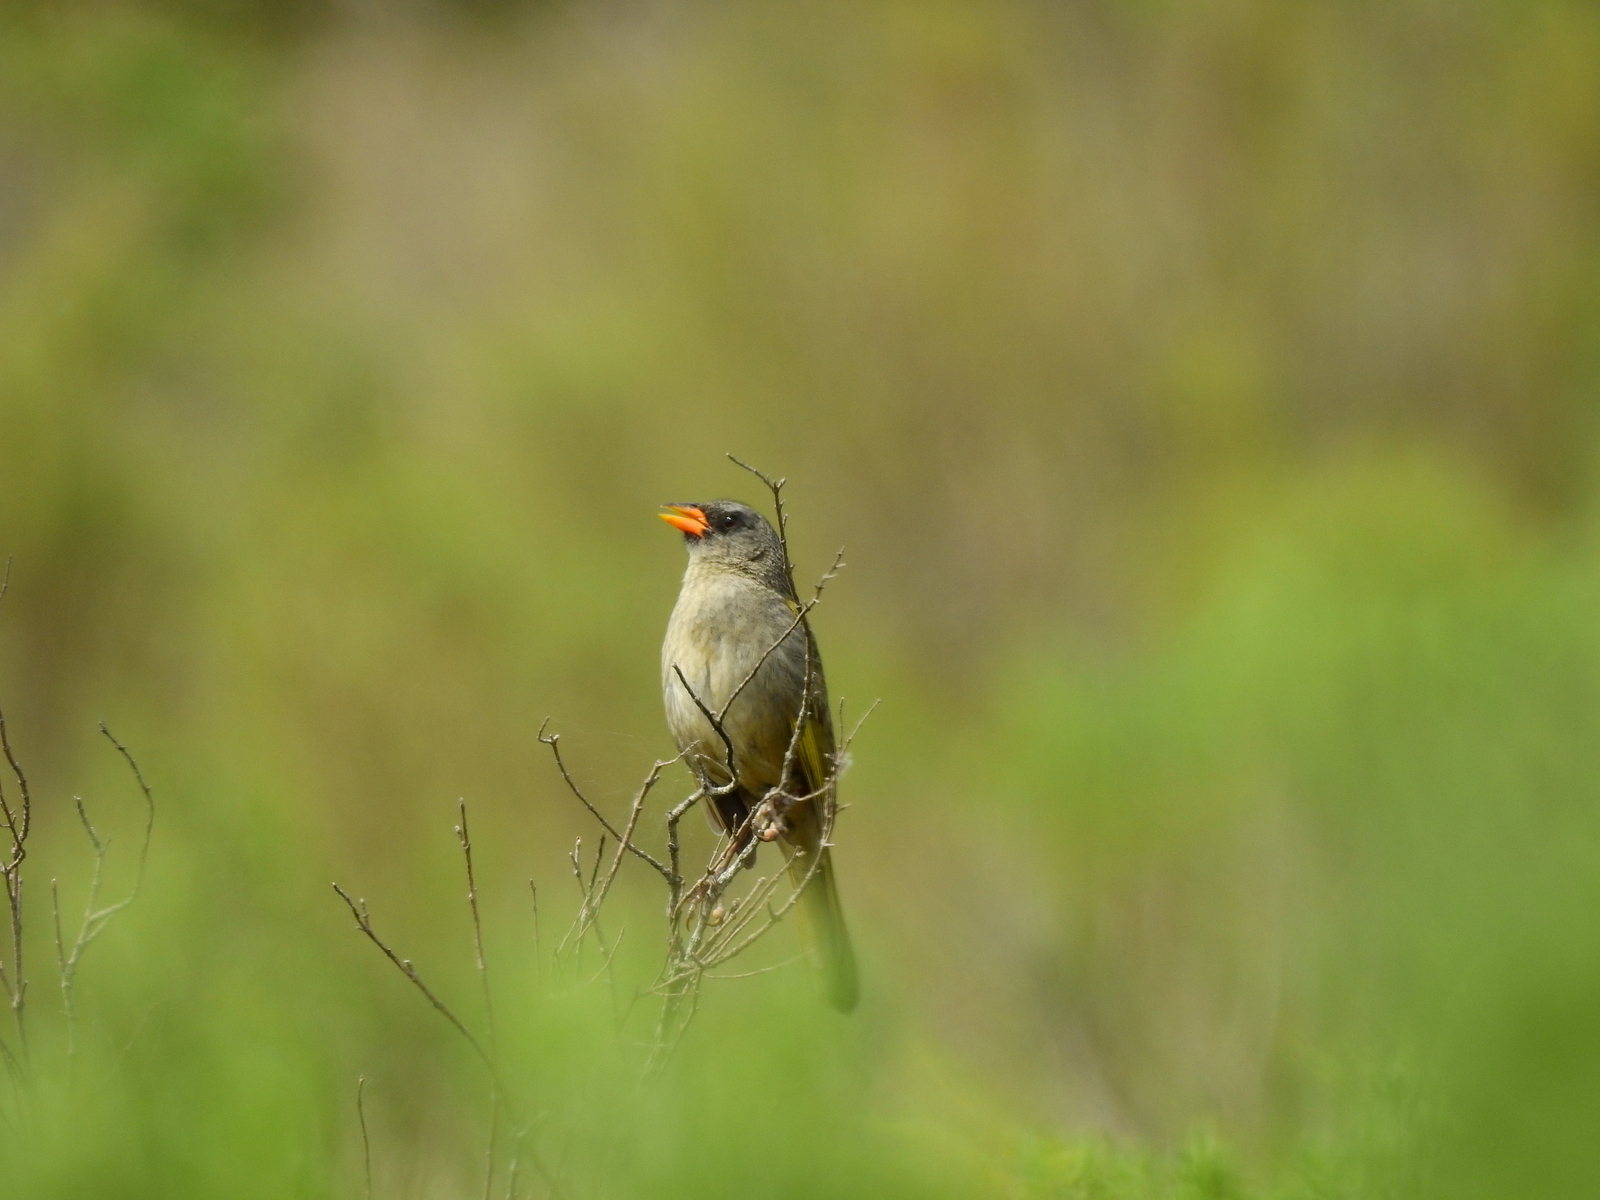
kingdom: Animalia
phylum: Chordata
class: Aves
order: Passeriformes
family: Thraupidae
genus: Embernagra
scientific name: Embernagra platensis
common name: Pampa finch
